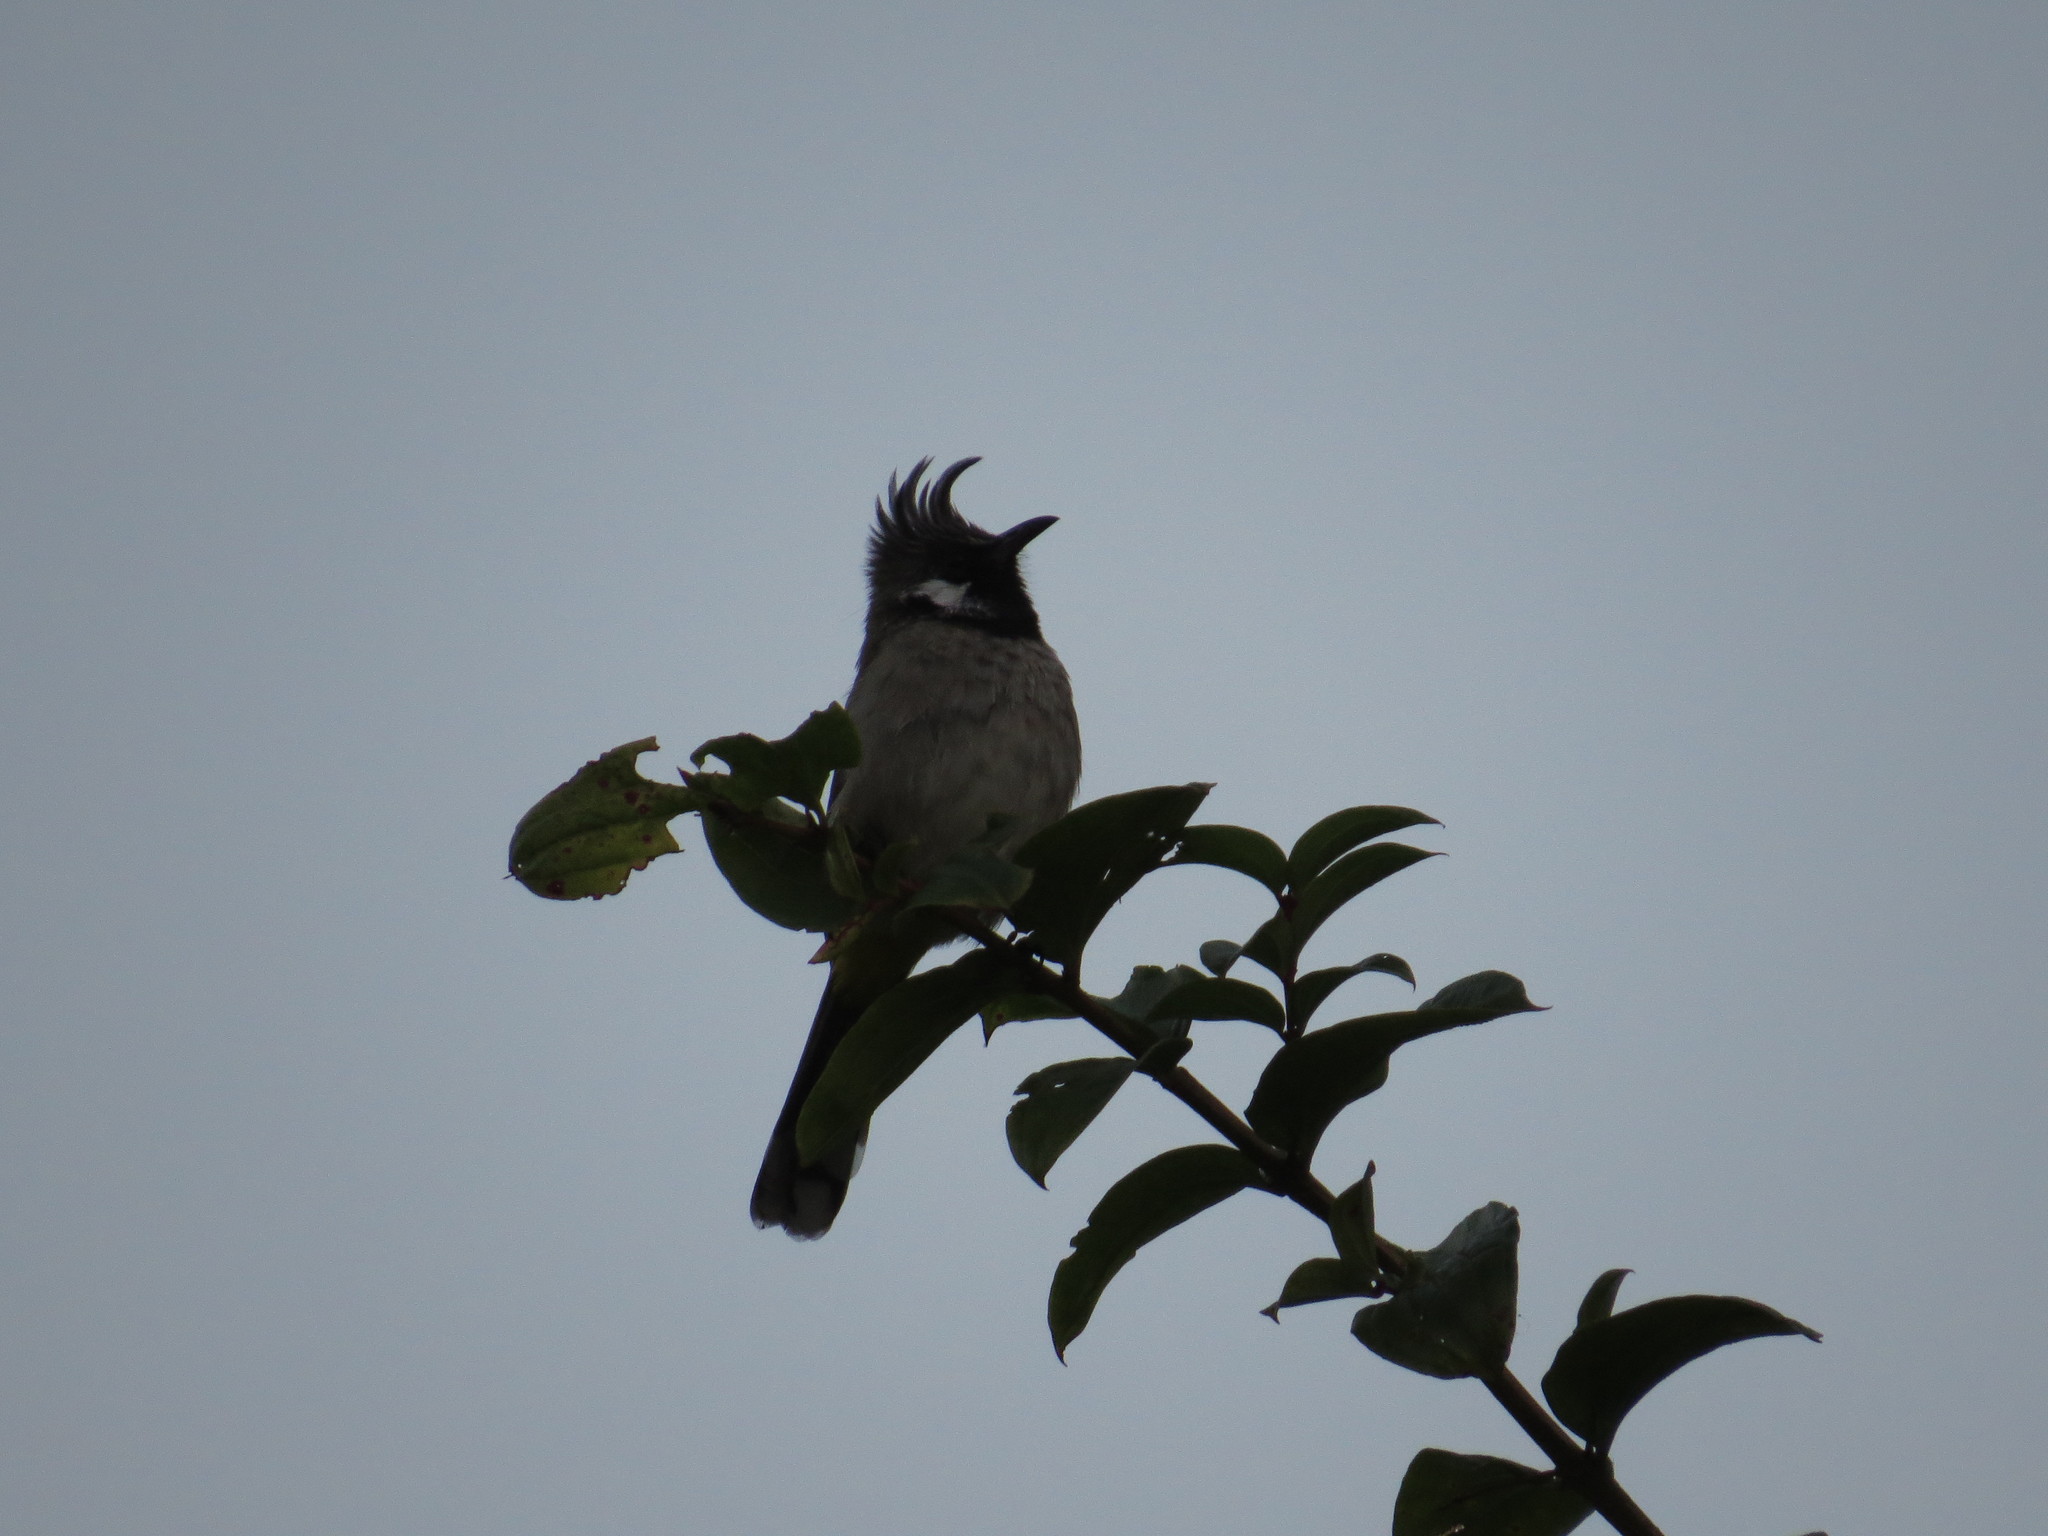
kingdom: Animalia
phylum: Chordata
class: Aves
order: Passeriformes
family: Pycnonotidae
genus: Pycnonotus
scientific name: Pycnonotus leucogenys
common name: Himalayan bulbul
